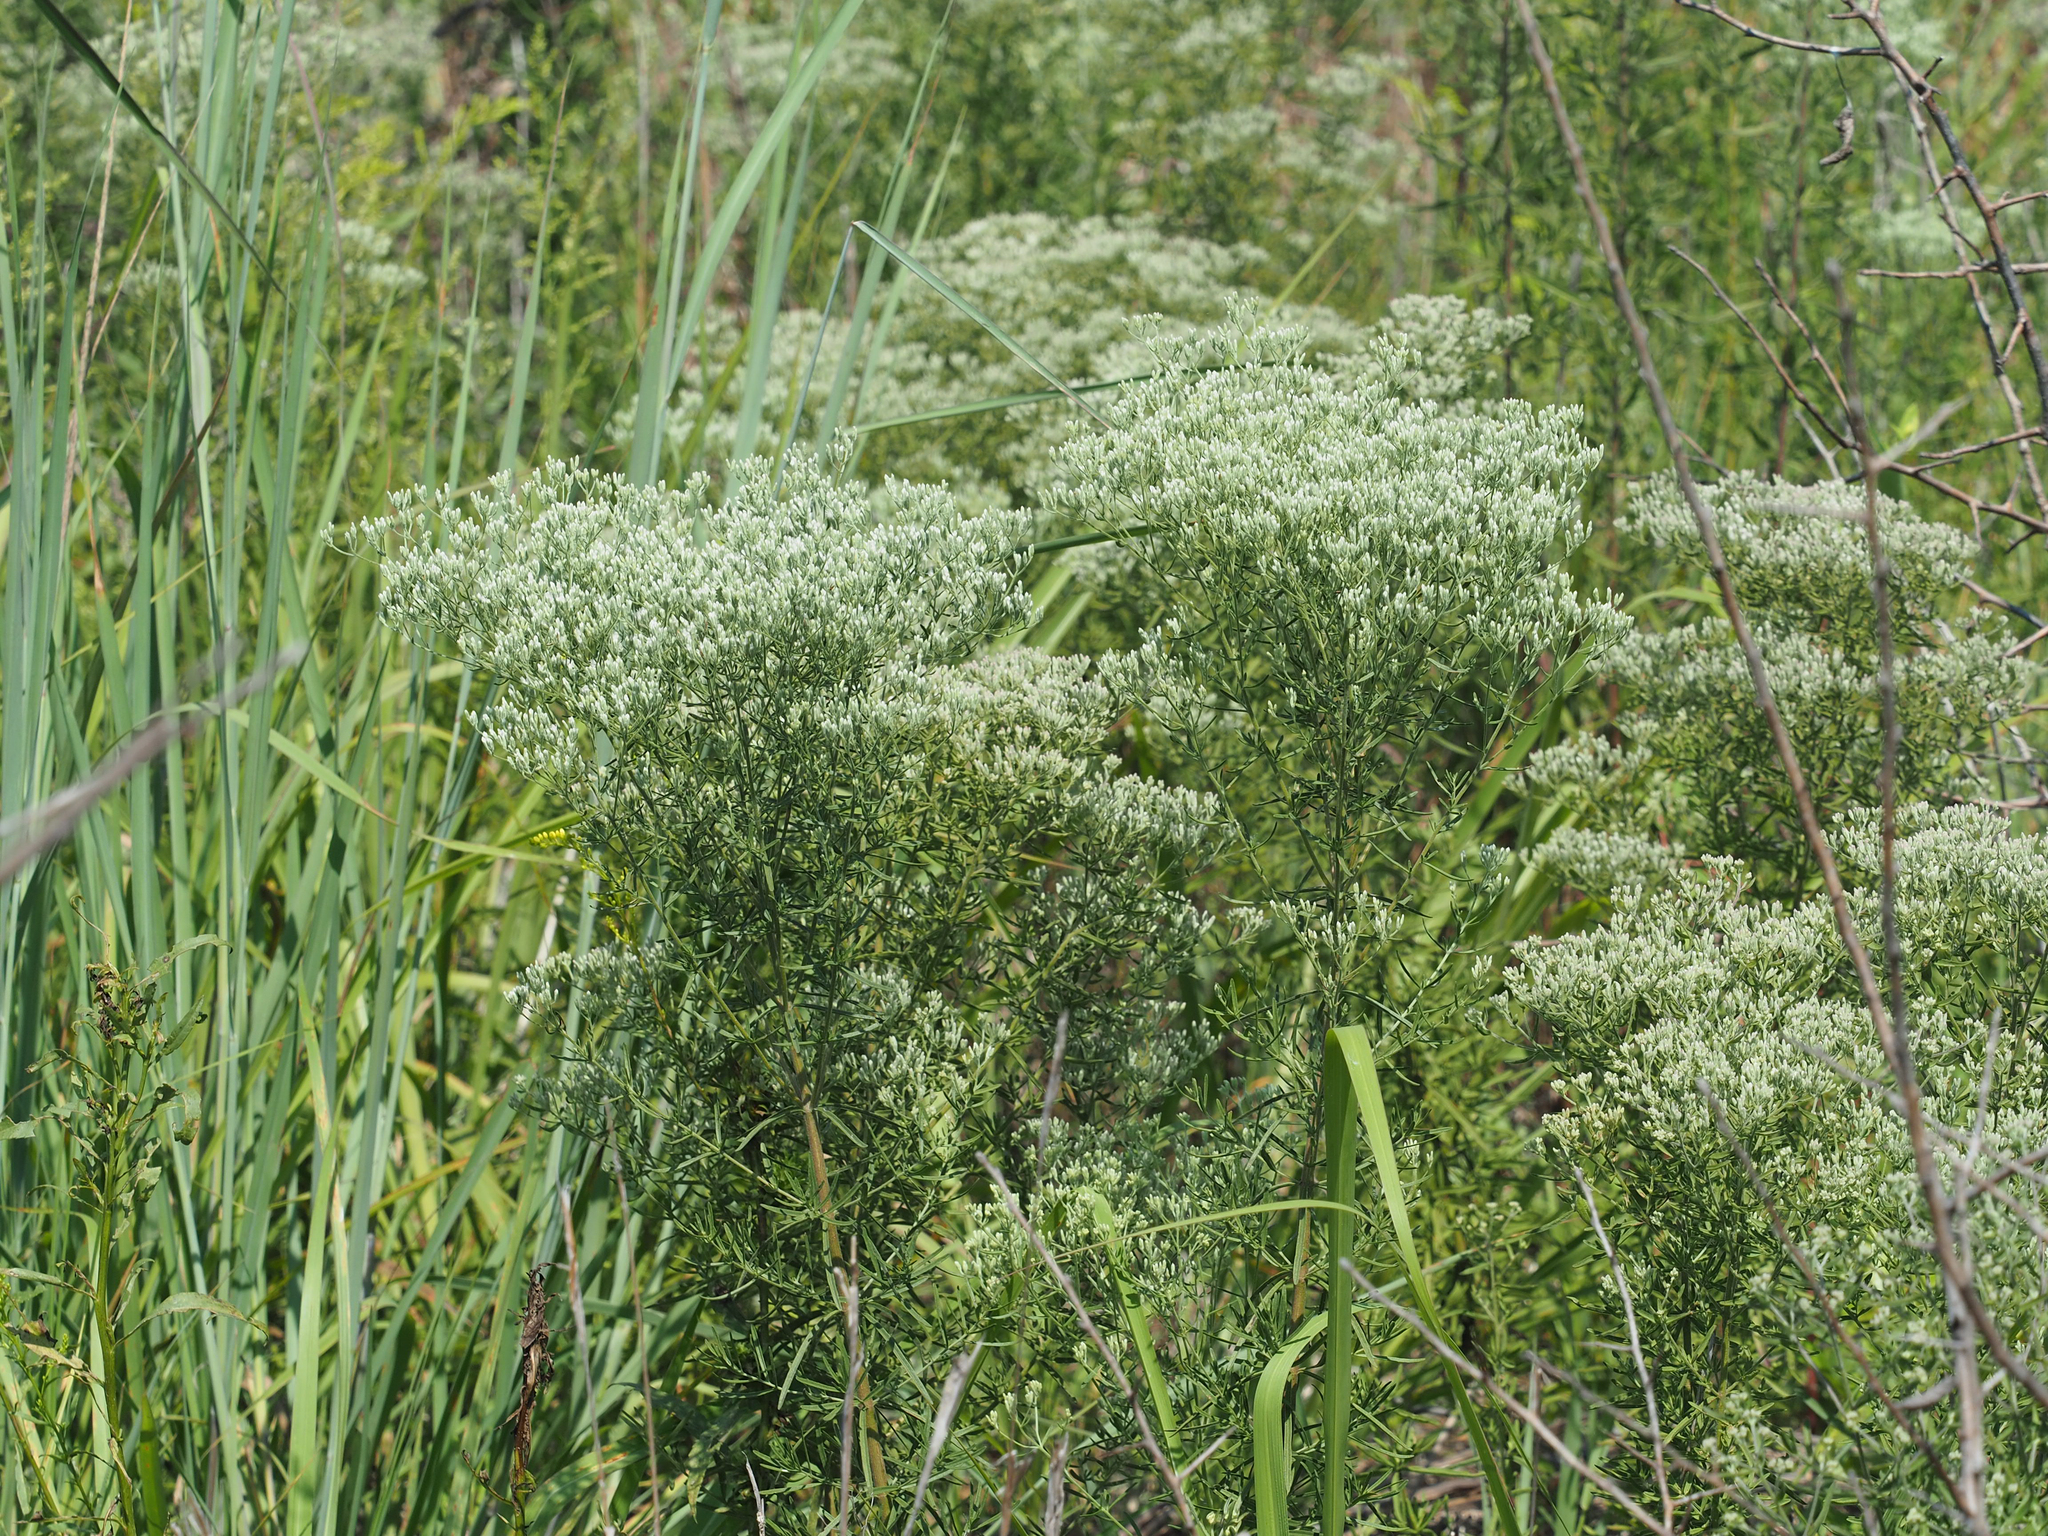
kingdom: Plantae
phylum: Tracheophyta
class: Magnoliopsida
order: Asterales
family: Asteraceae
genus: Eupatorium
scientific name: Eupatorium hyssopifolium
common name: Hyssop-leaf thoroughwort
